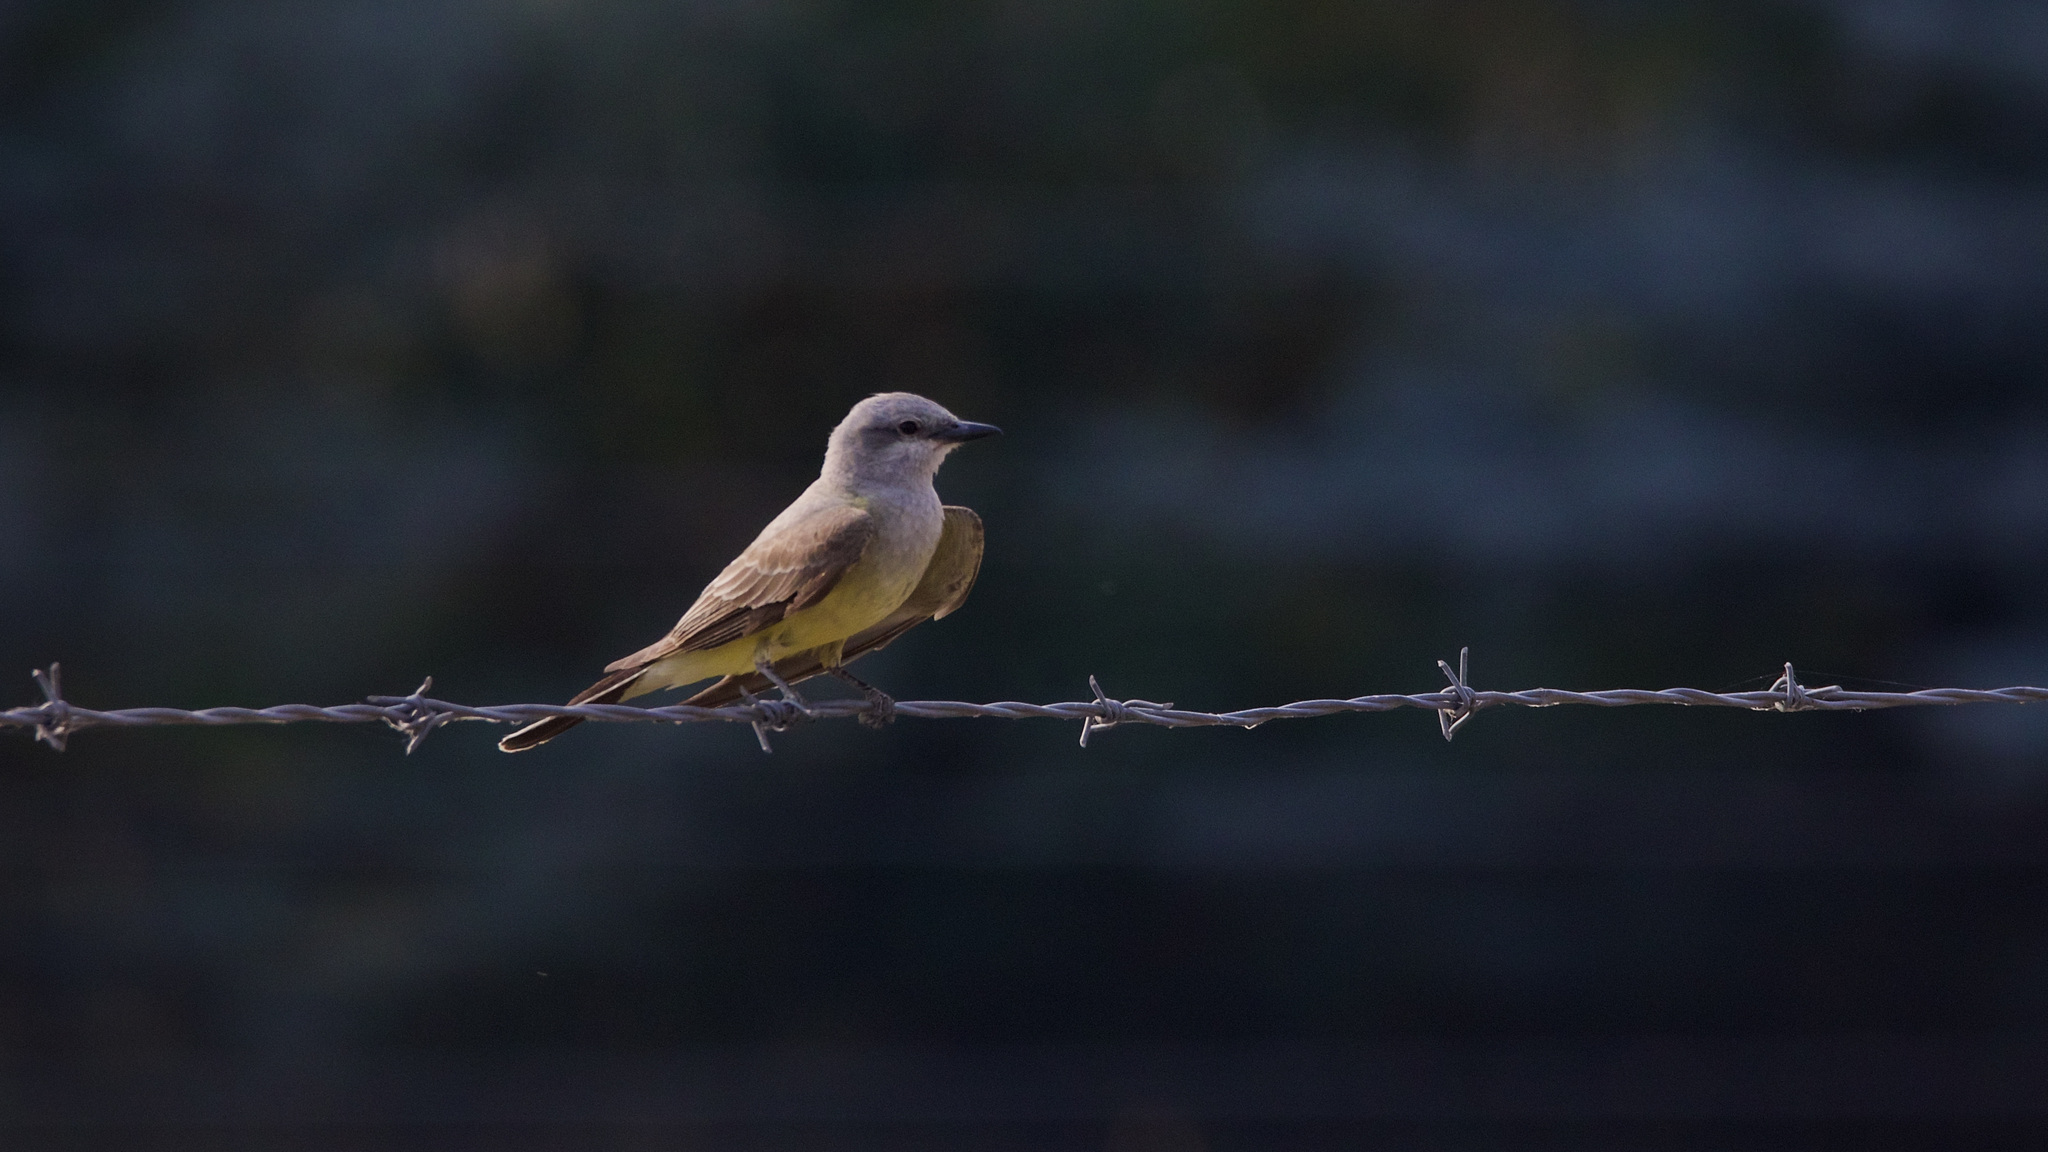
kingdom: Animalia
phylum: Chordata
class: Aves
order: Passeriformes
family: Tyrannidae
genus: Tyrannus
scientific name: Tyrannus verticalis
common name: Western kingbird
